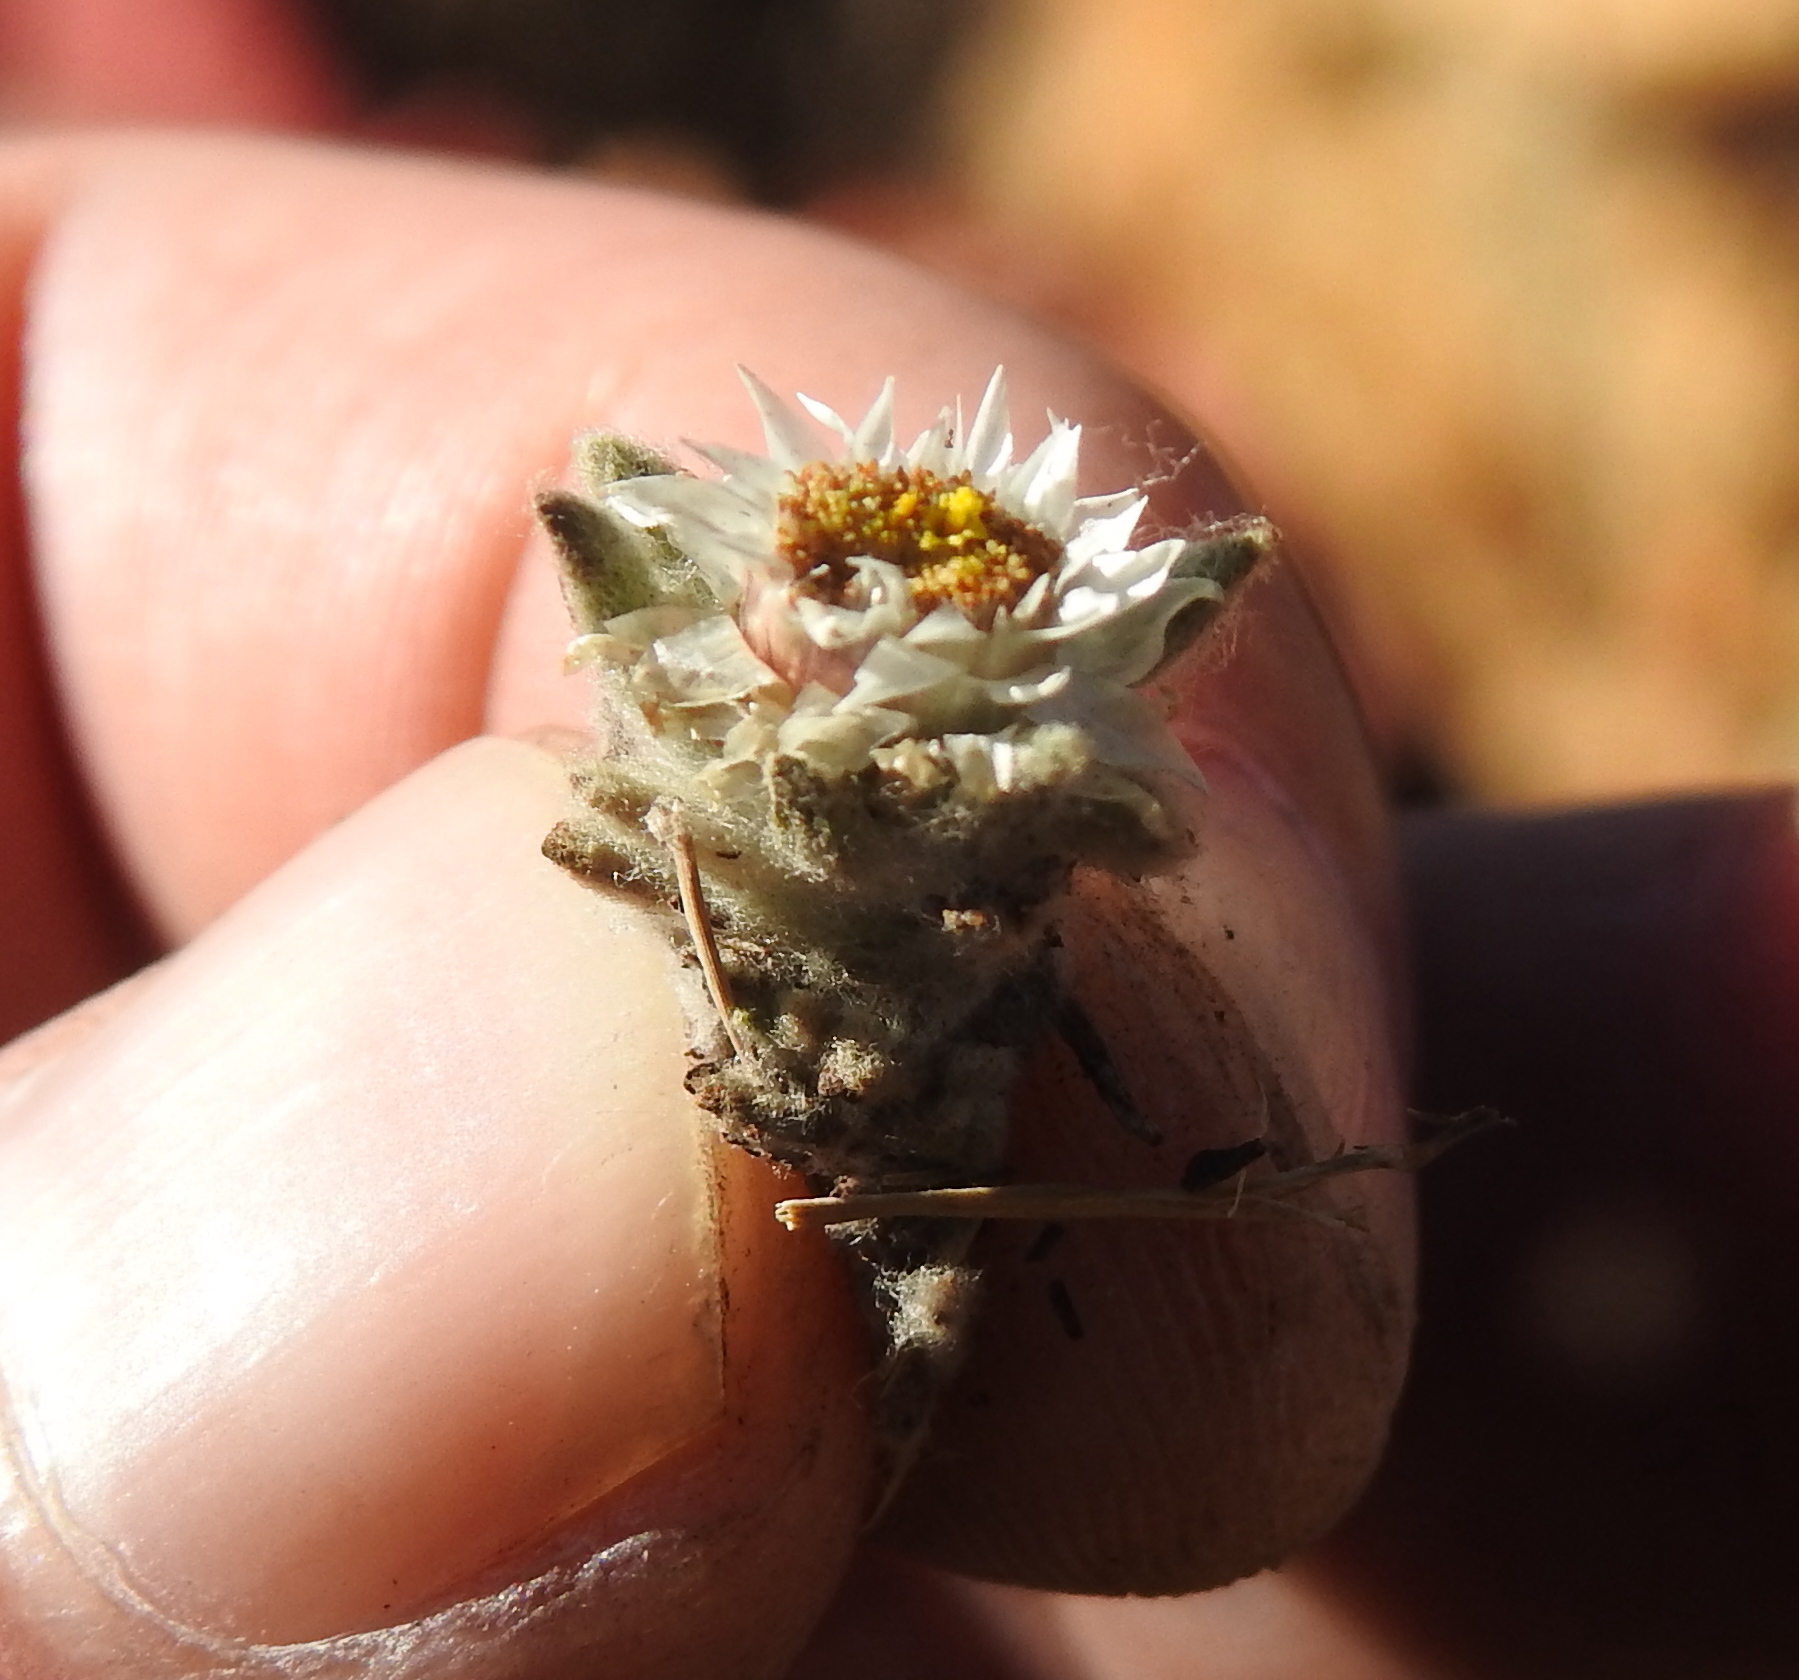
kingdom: Plantae
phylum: Tracheophyta
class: Magnoliopsida
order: Asterales
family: Asteraceae
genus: Helichrysum
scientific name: Helichrysum cerastioides
